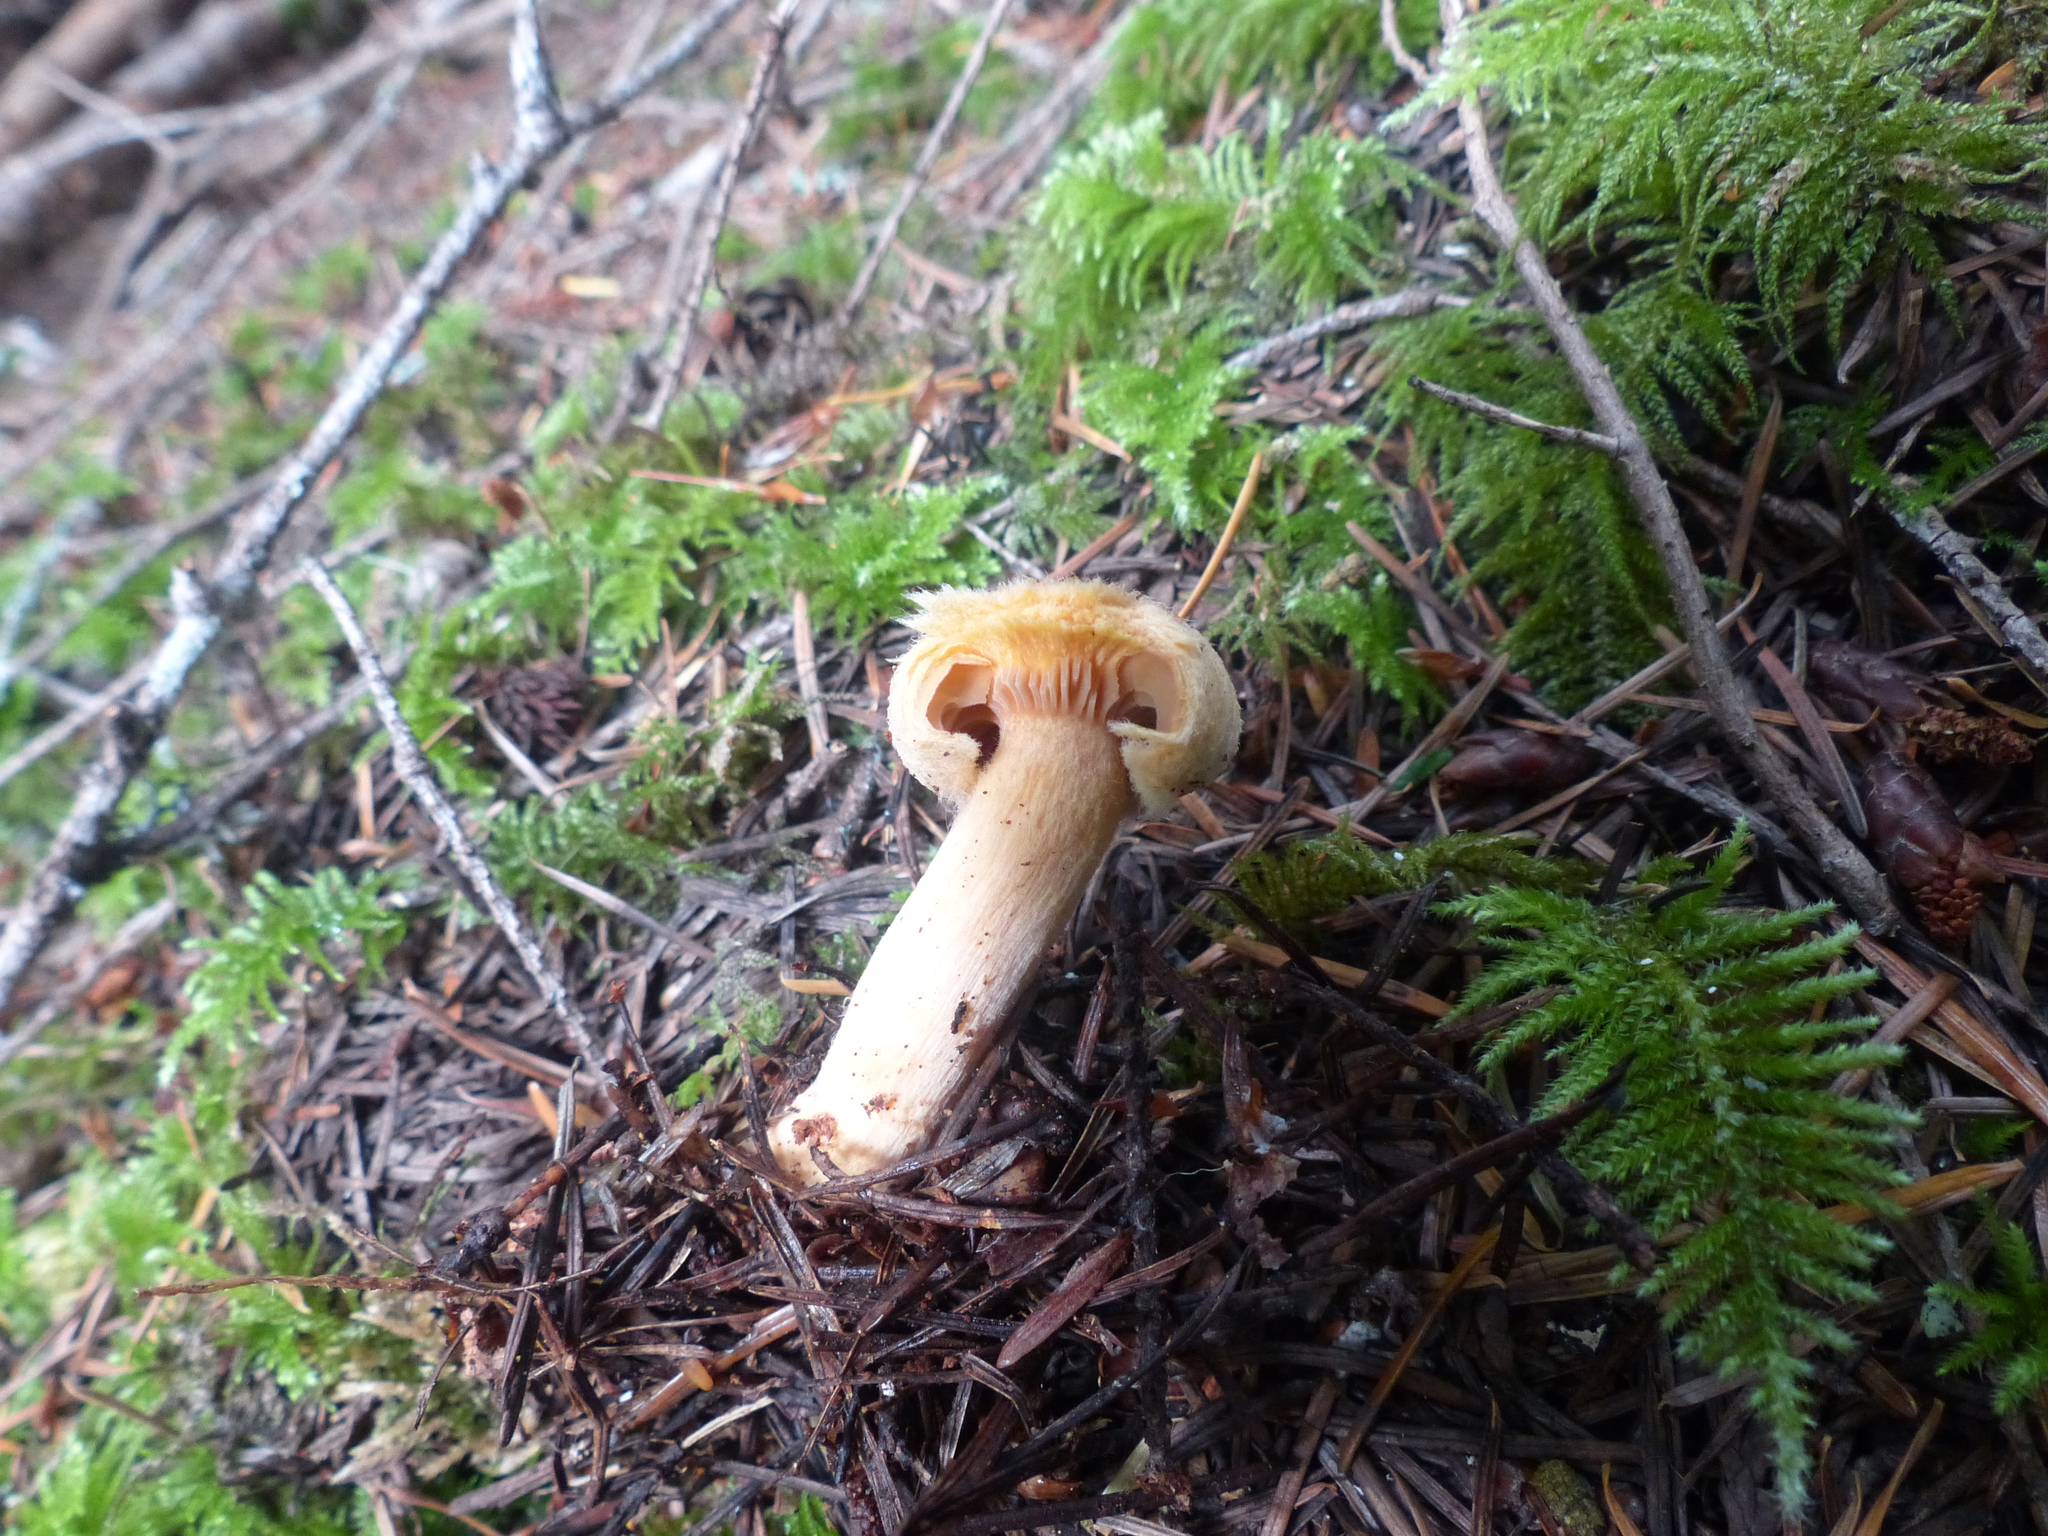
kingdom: Fungi
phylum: Basidiomycota
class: Agaricomycetes
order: Boletales
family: Gomphidiaceae
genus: Chroogomphus
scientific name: Chroogomphus tomentosus
